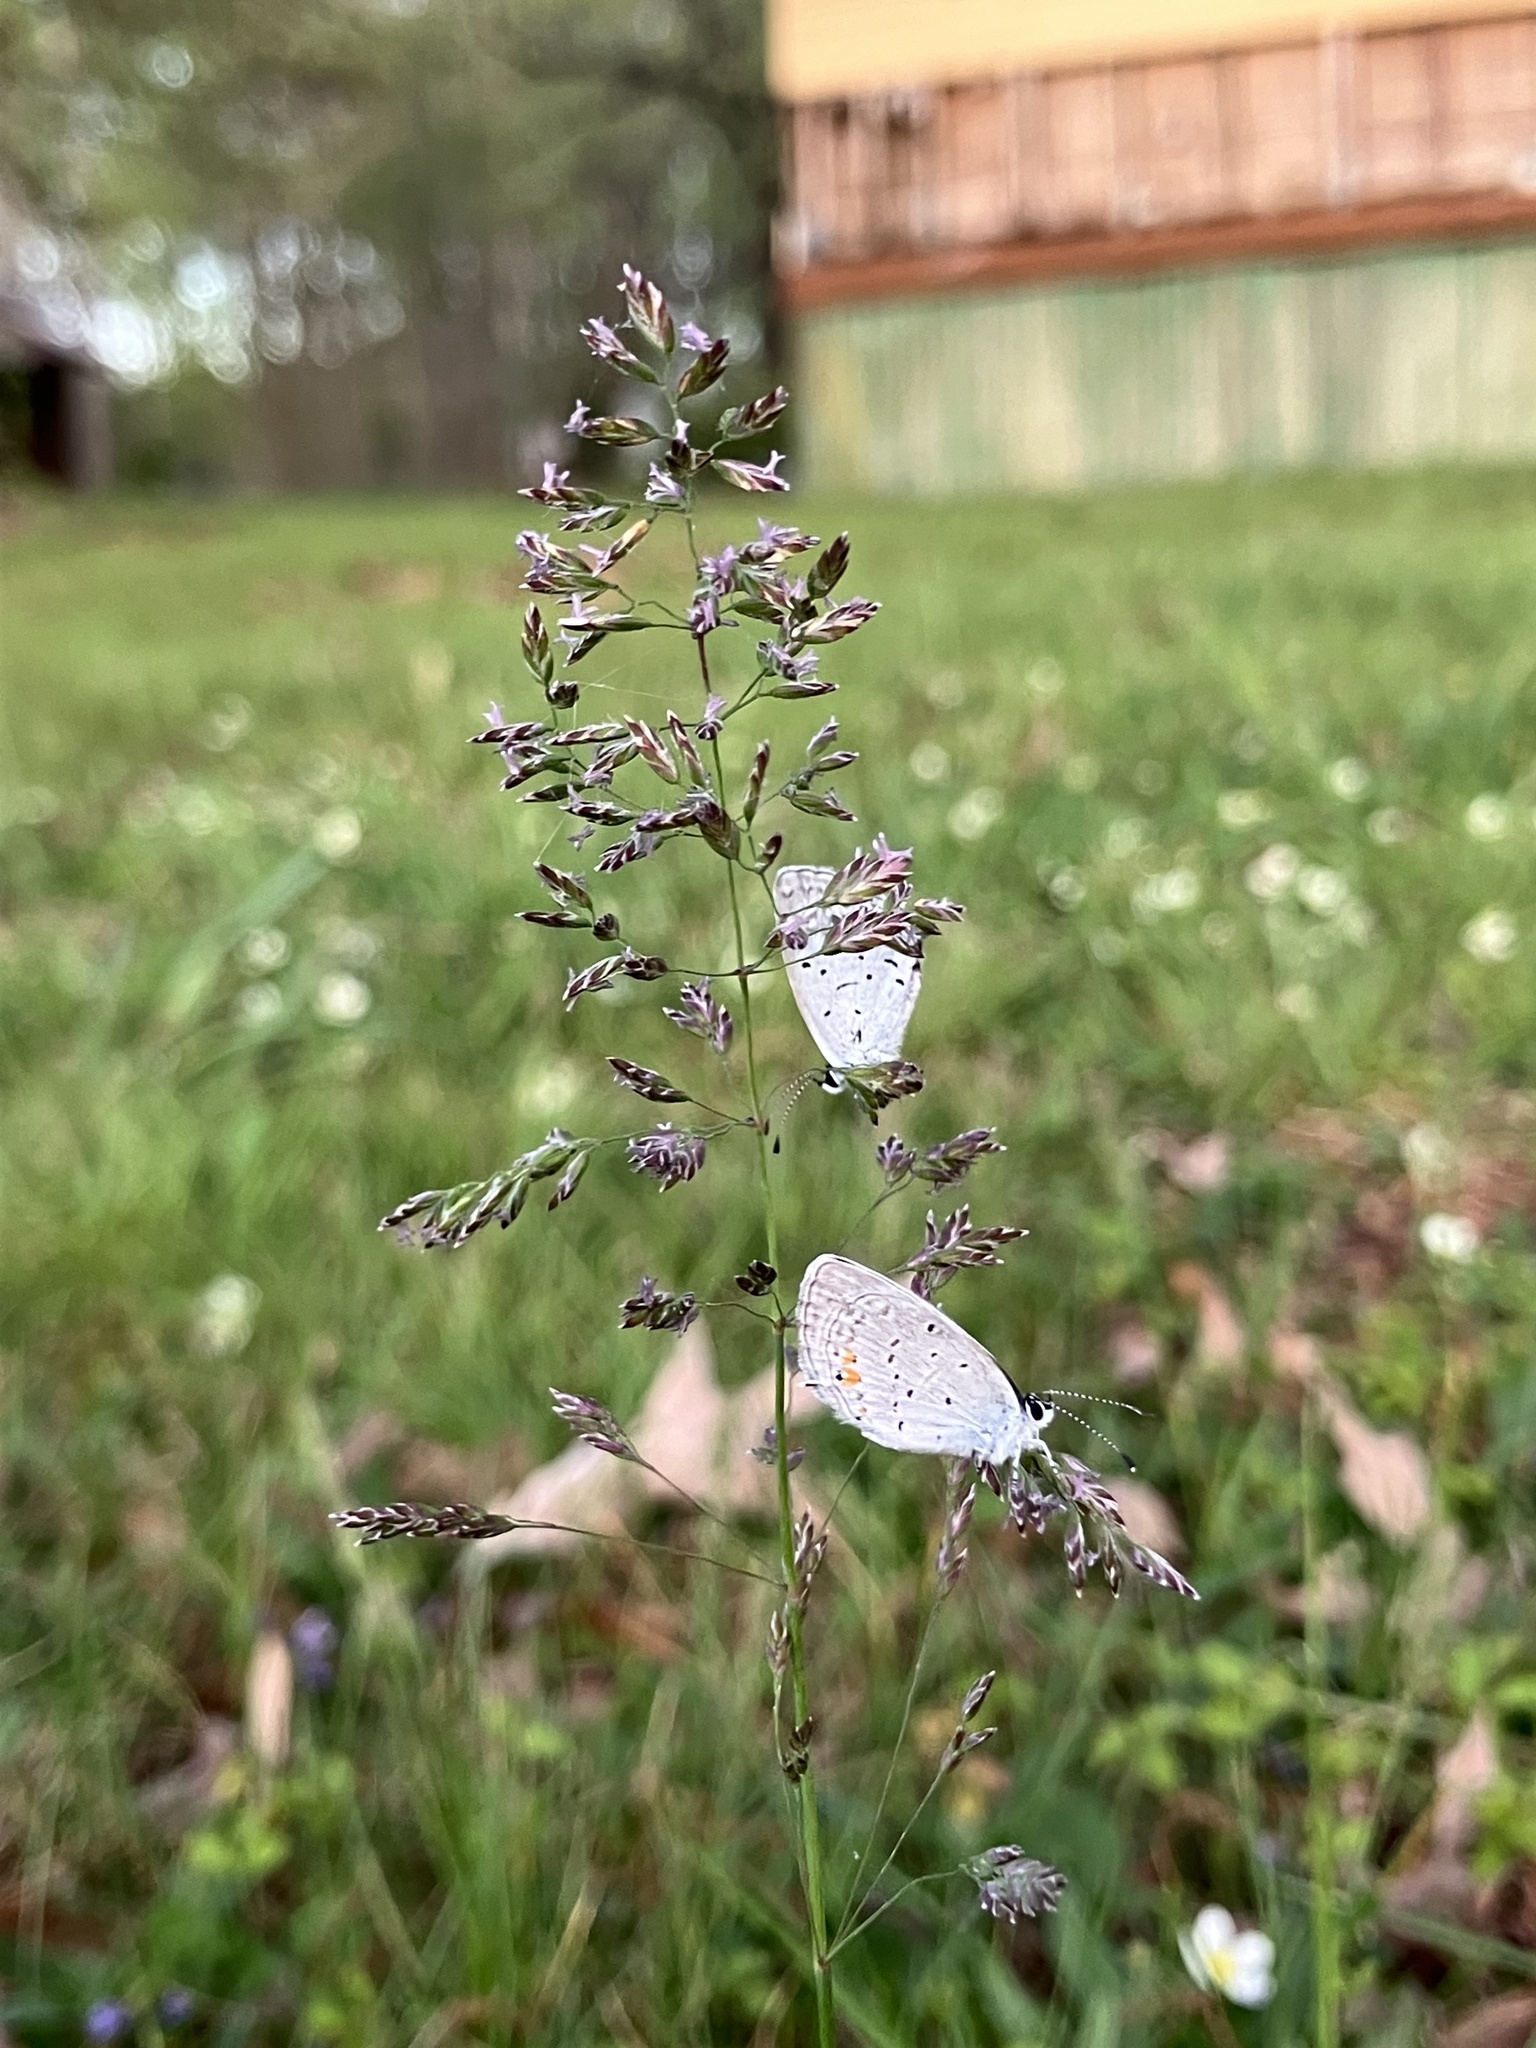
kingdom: Animalia
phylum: Arthropoda
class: Insecta
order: Lepidoptera
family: Lycaenidae
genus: Elkalyce
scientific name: Elkalyce comyntas
